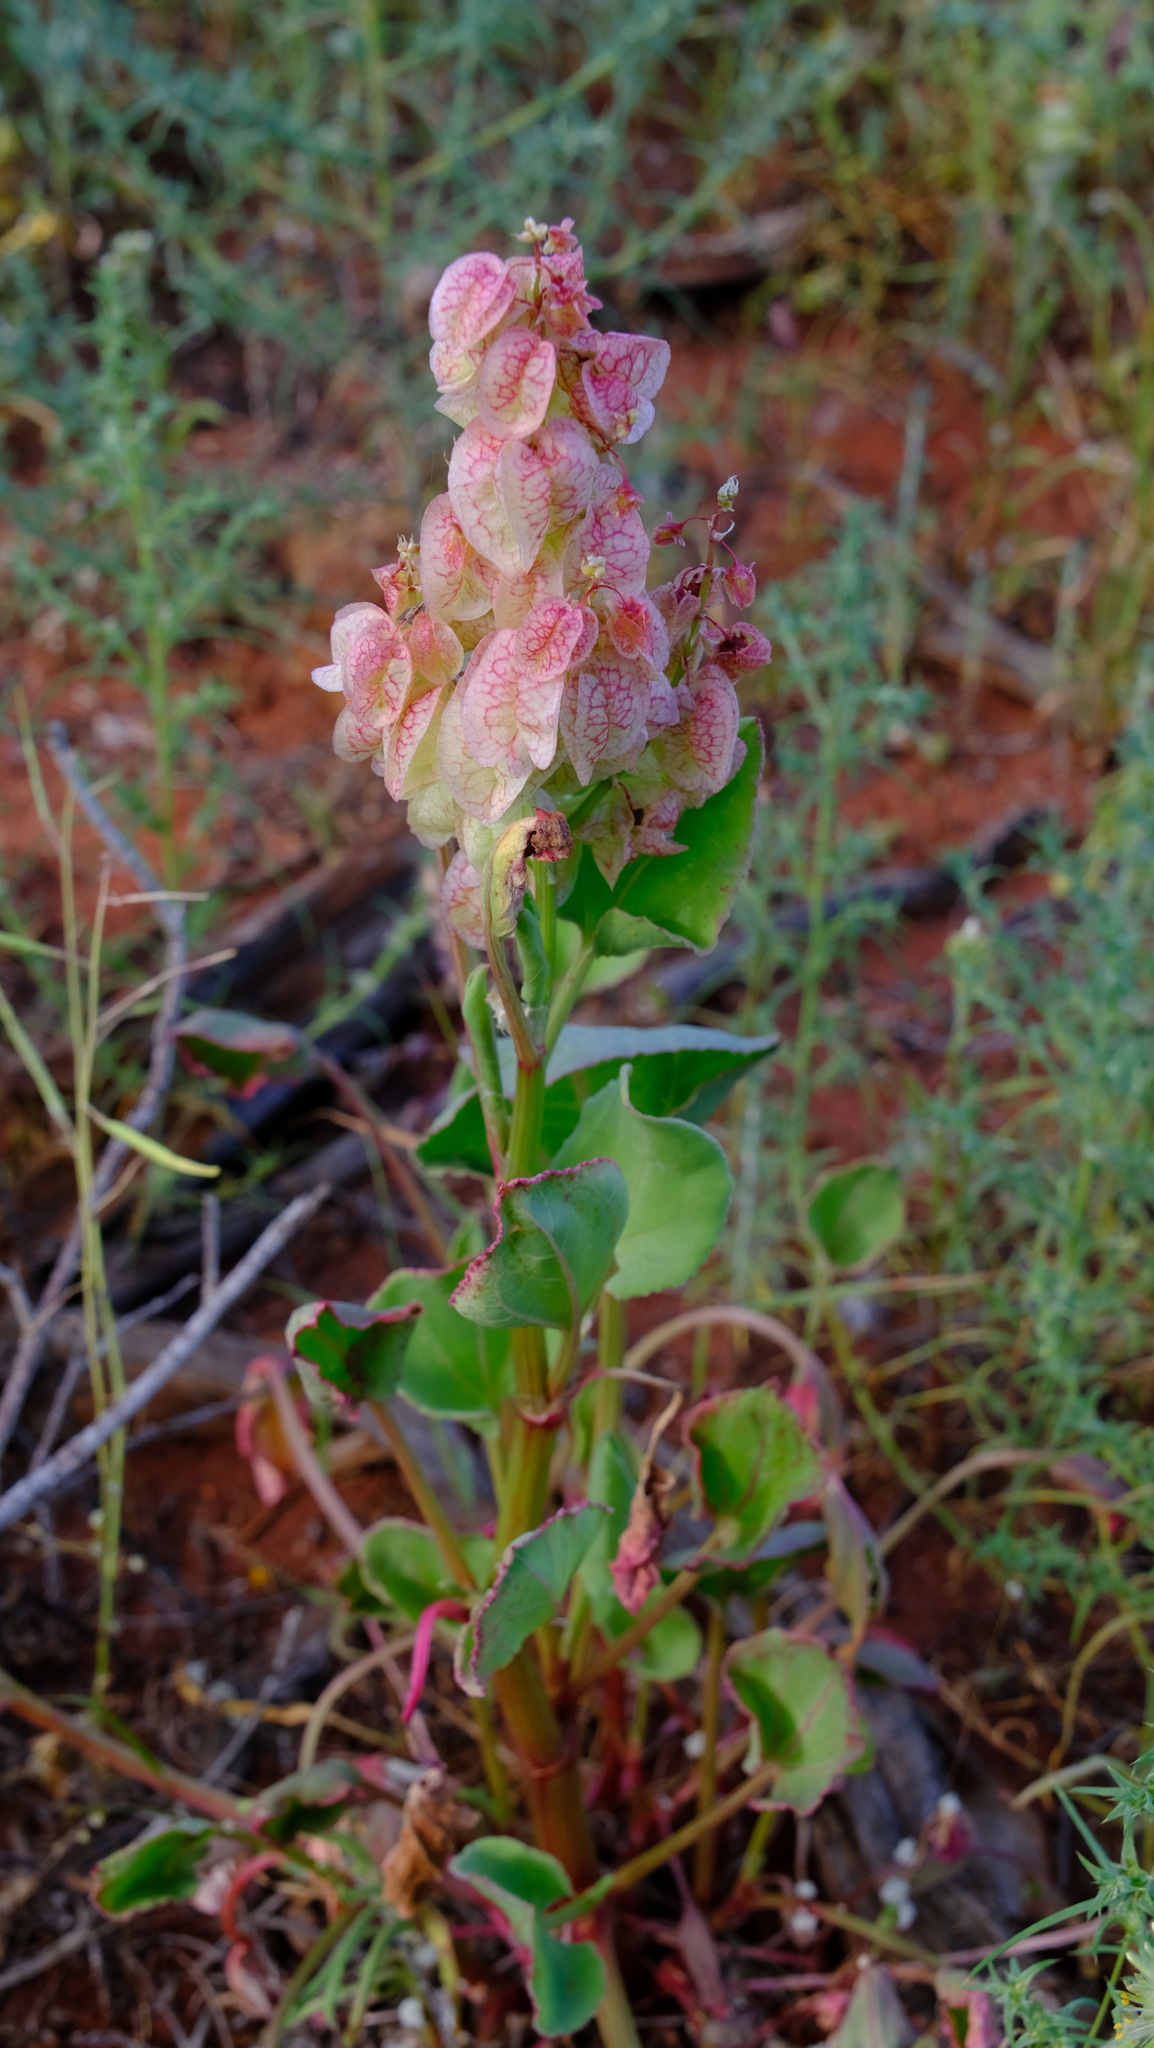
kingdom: Plantae
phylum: Tracheophyta
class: Magnoliopsida
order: Caryophyllales
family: Polygonaceae
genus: Rumex
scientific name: Rumex vesicarius
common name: Bladder dock
